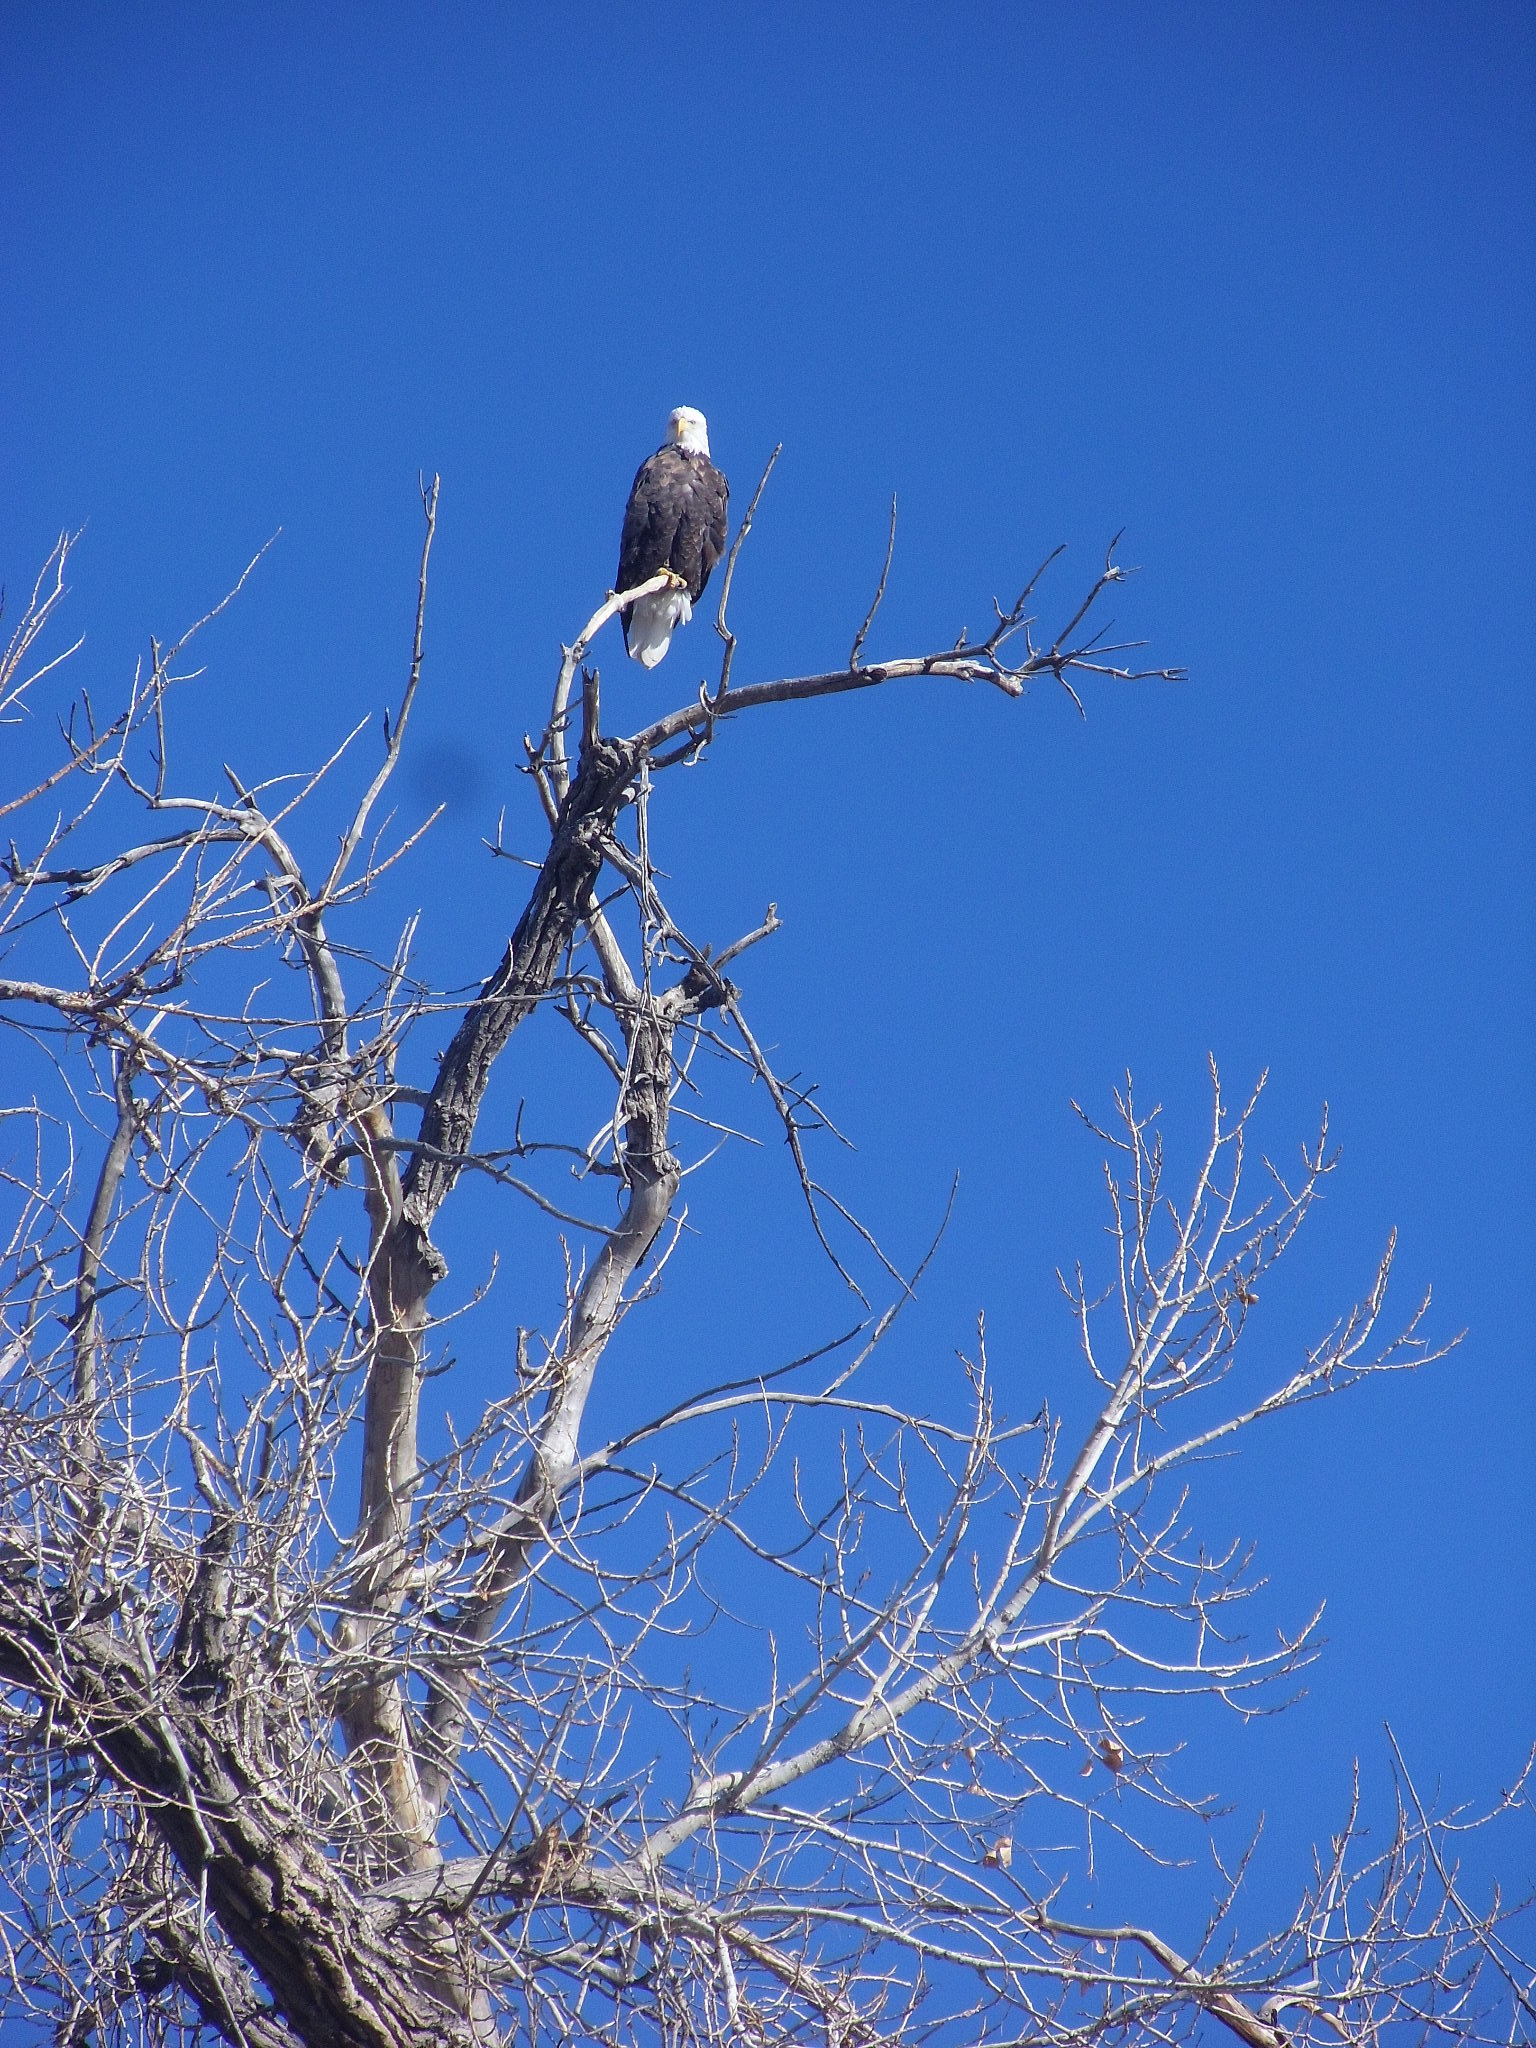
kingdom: Animalia
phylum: Chordata
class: Aves
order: Accipitriformes
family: Accipitridae
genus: Haliaeetus
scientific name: Haliaeetus leucocephalus
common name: Bald eagle
